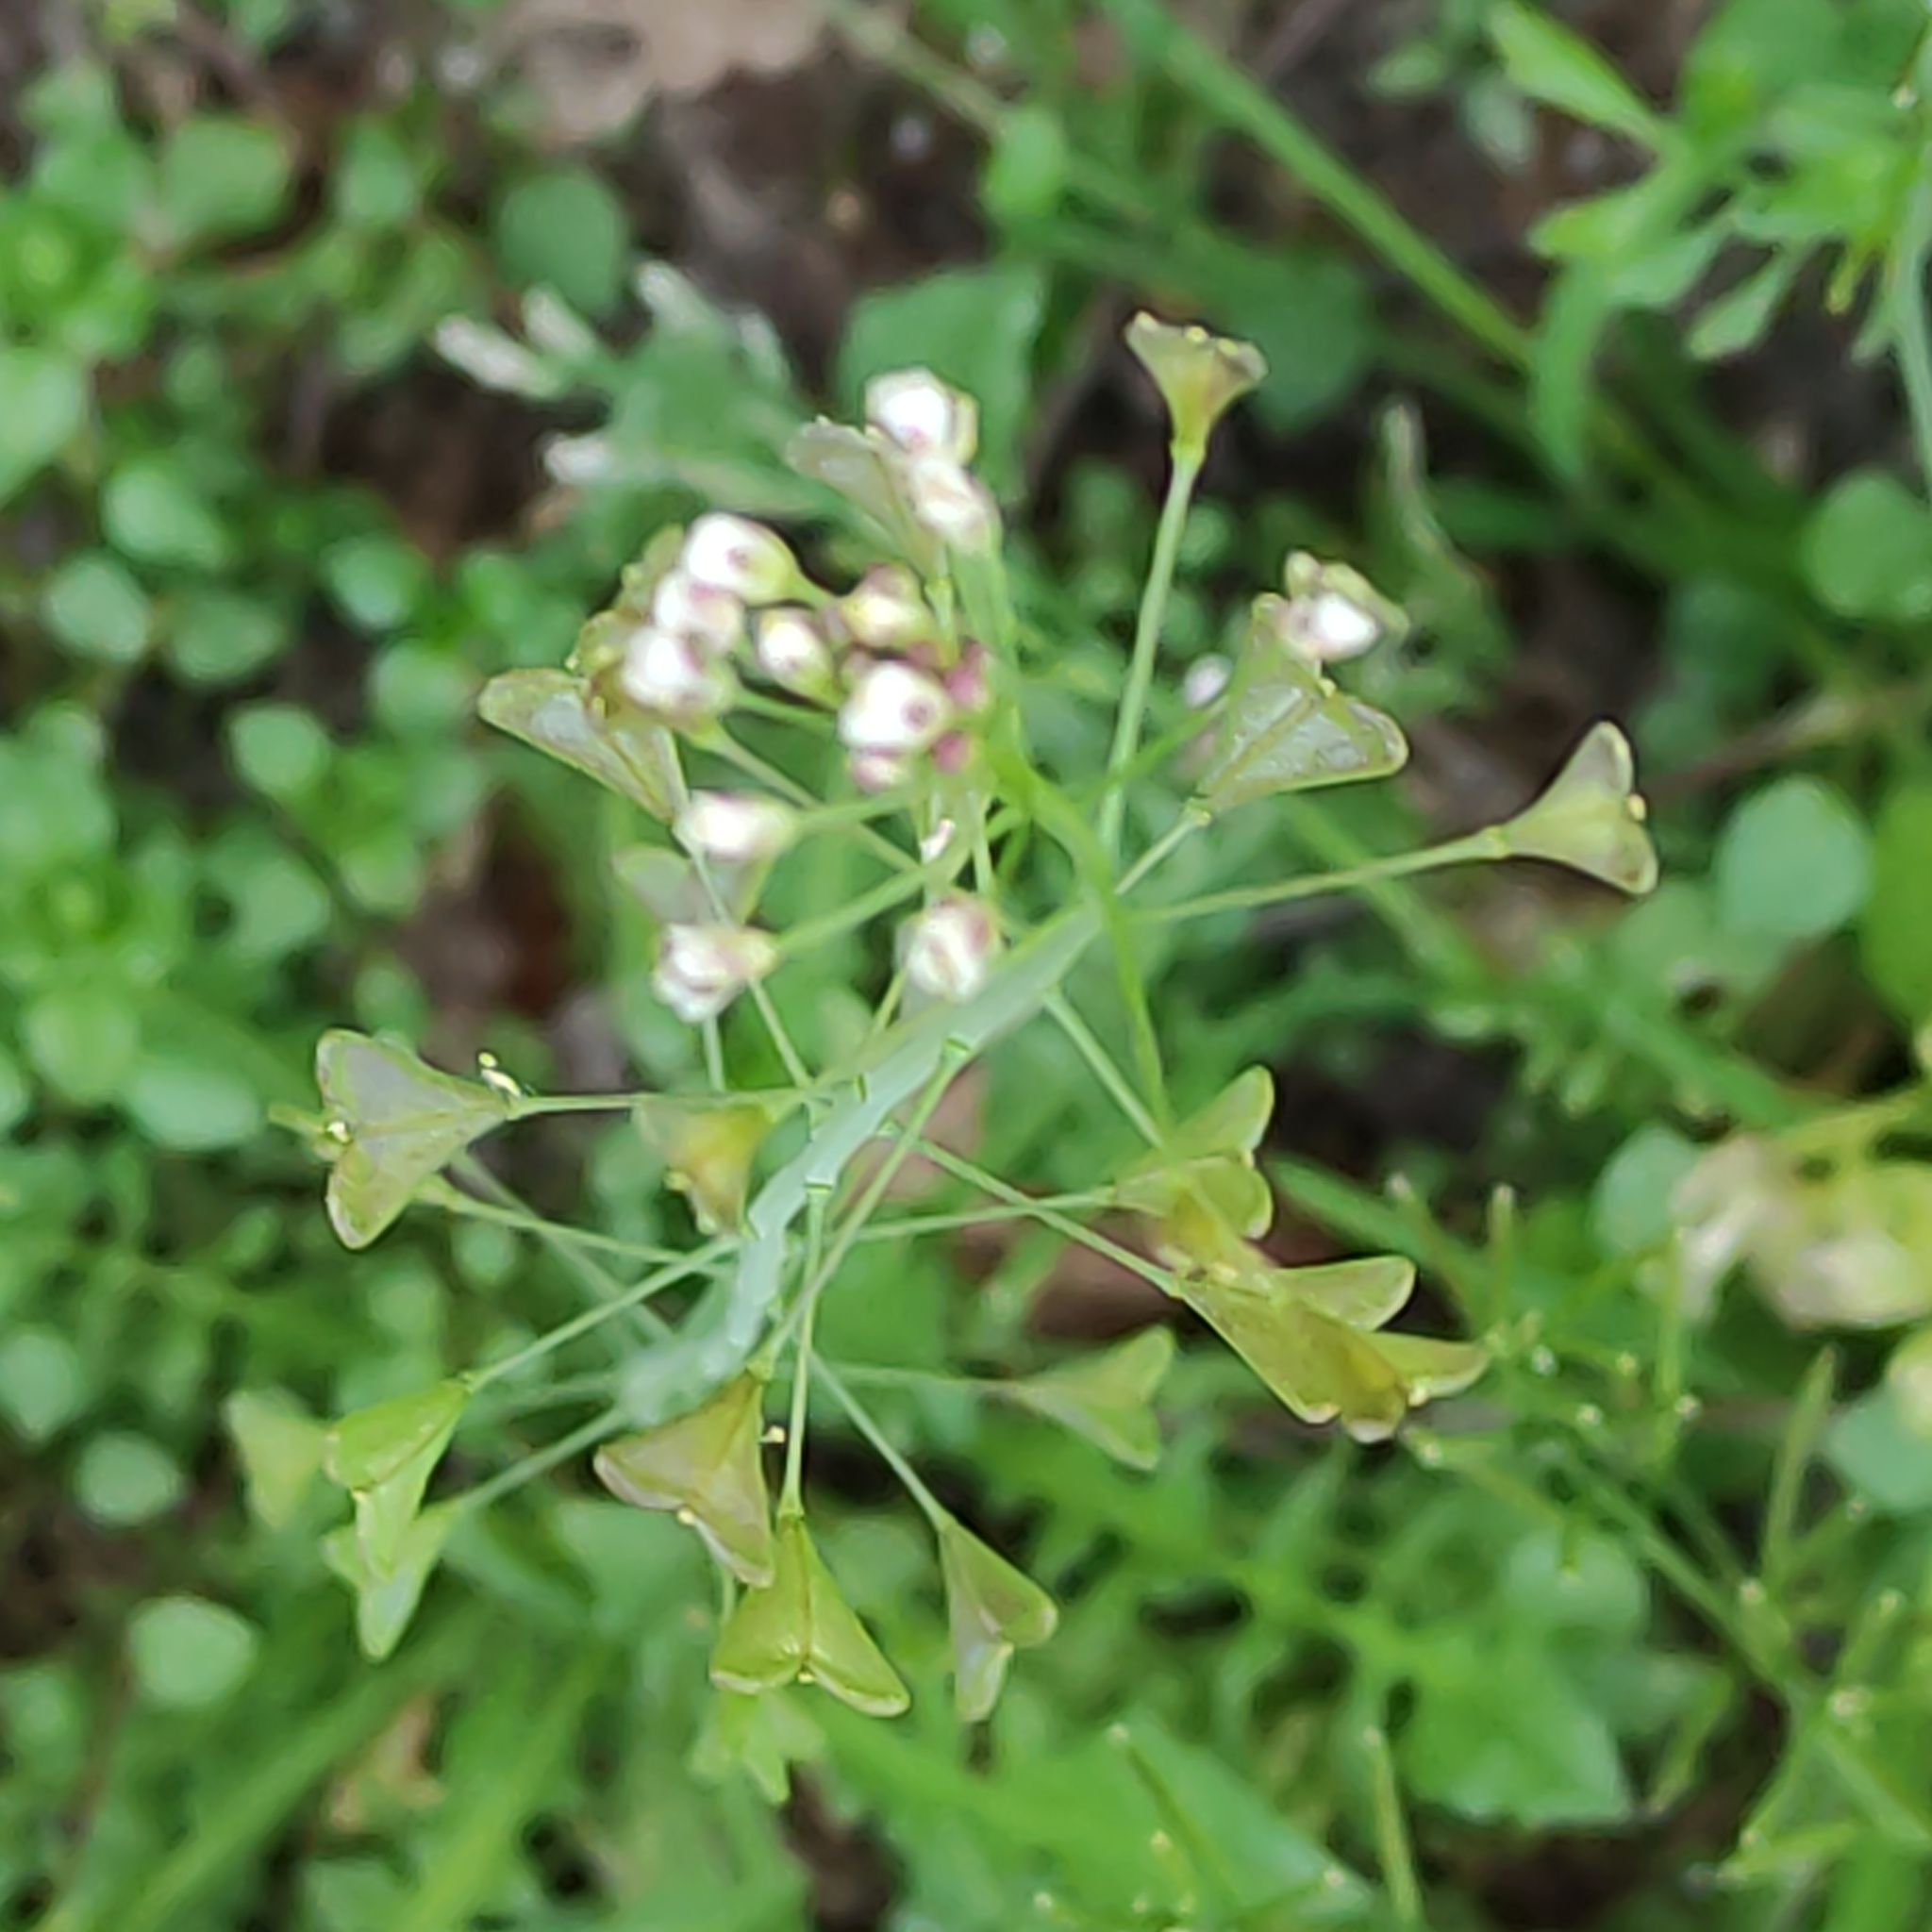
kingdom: Plantae
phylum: Tracheophyta
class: Magnoliopsida
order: Brassicales
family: Brassicaceae
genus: Capsella
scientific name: Capsella bursa-pastoris
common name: Shepherd's purse
